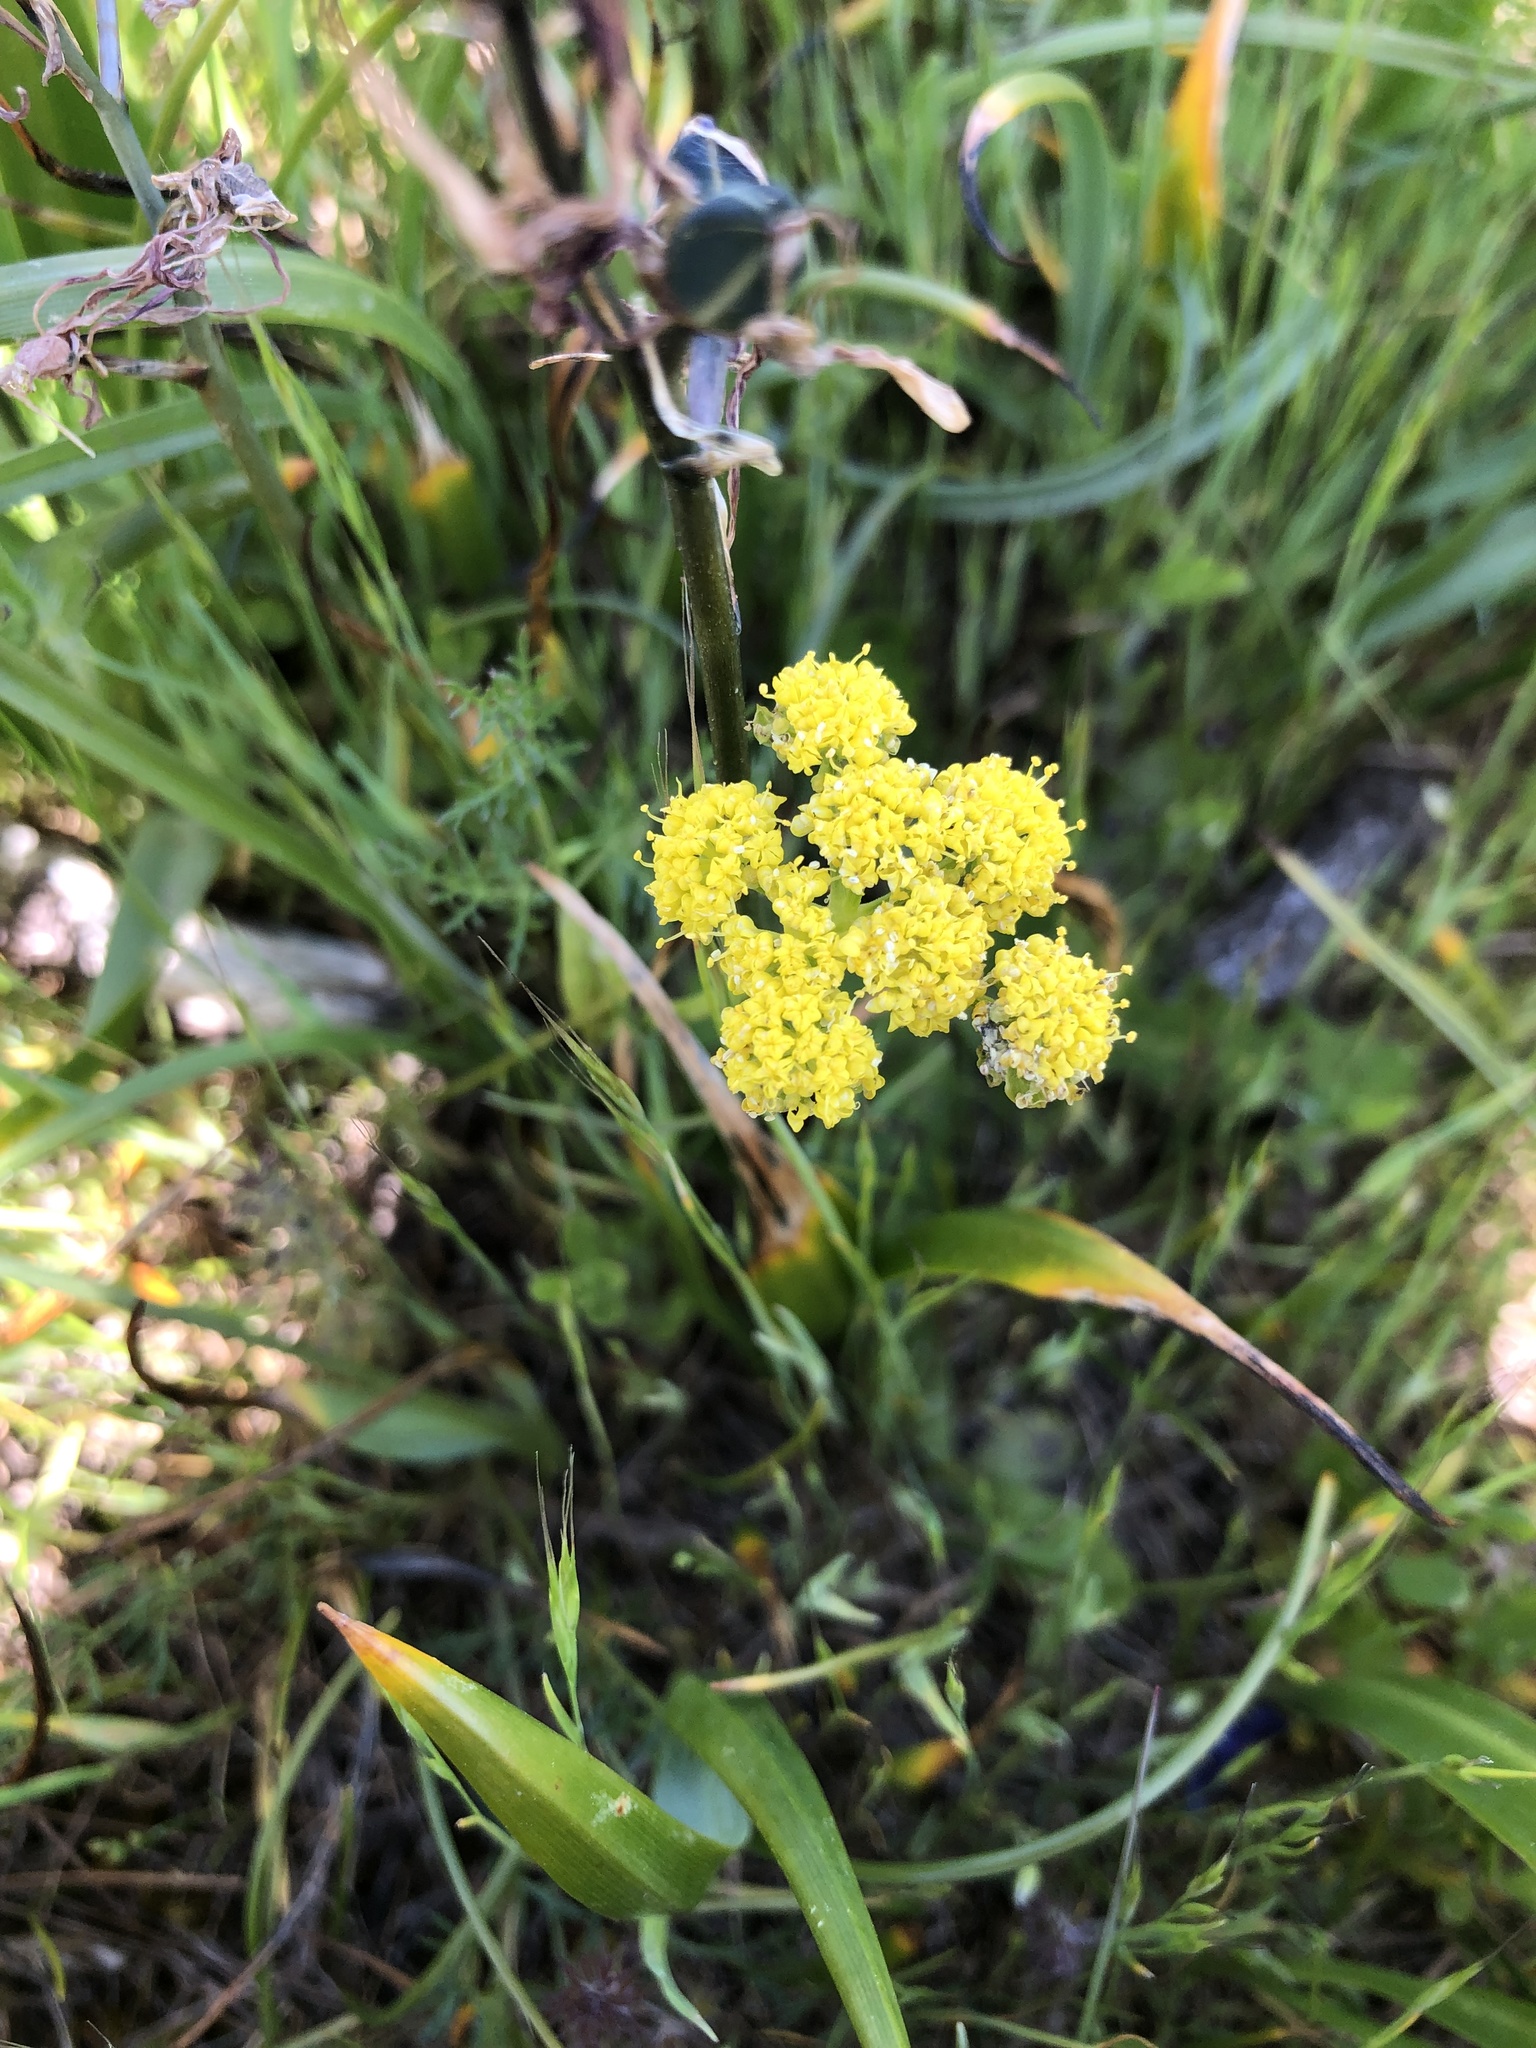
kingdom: Plantae
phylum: Tracheophyta
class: Magnoliopsida
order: Apiales
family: Apiaceae
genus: Lomatium
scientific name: Lomatium utriculatum
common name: Fine-leaf desert-parsley
